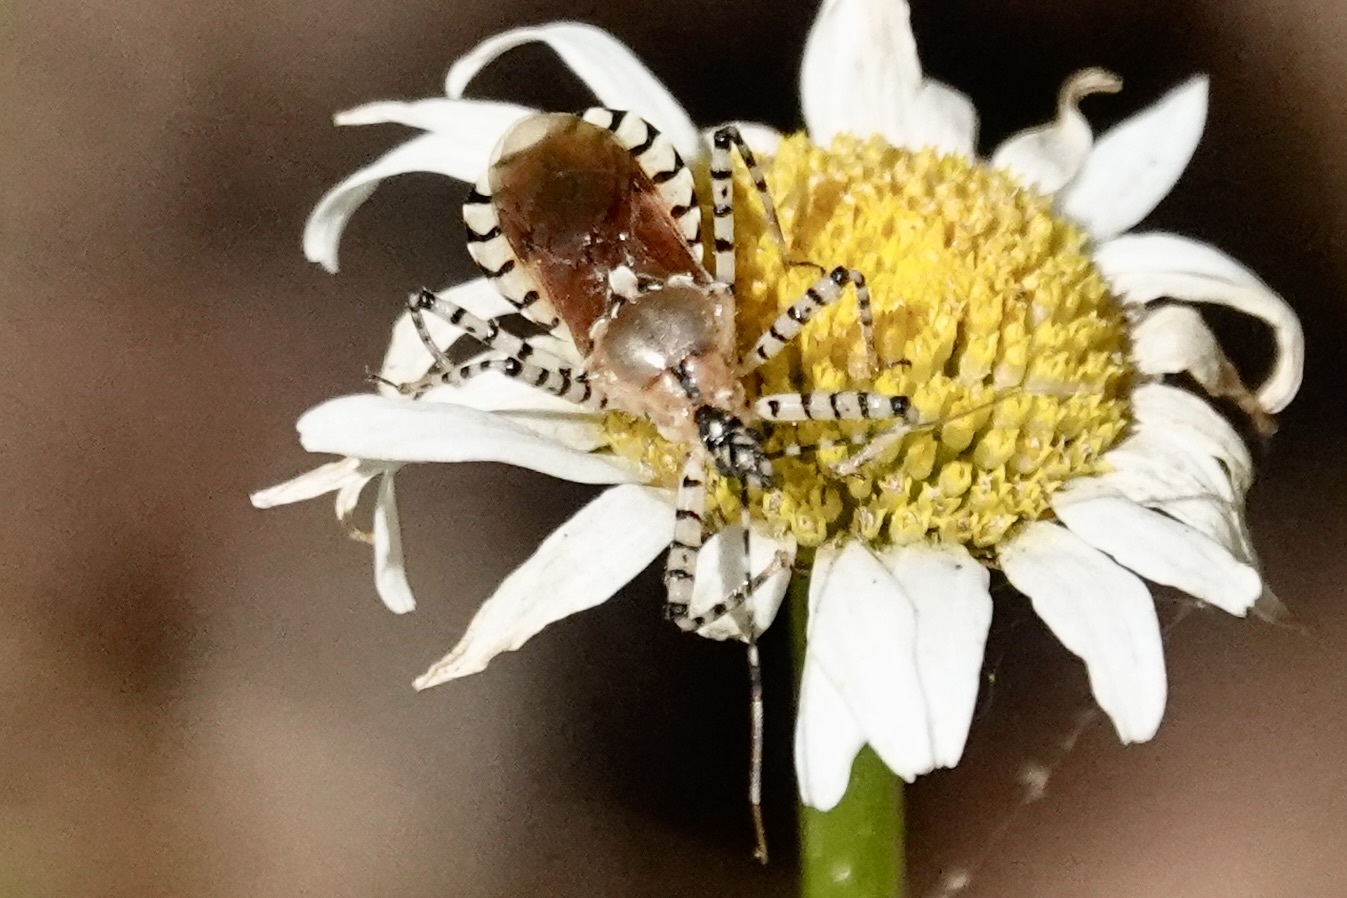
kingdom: Animalia
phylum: Arthropoda
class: Insecta
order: Hemiptera
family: Reduviidae
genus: Pselliopus
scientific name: Pselliopus cinctus
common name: Ringed assassin bug
